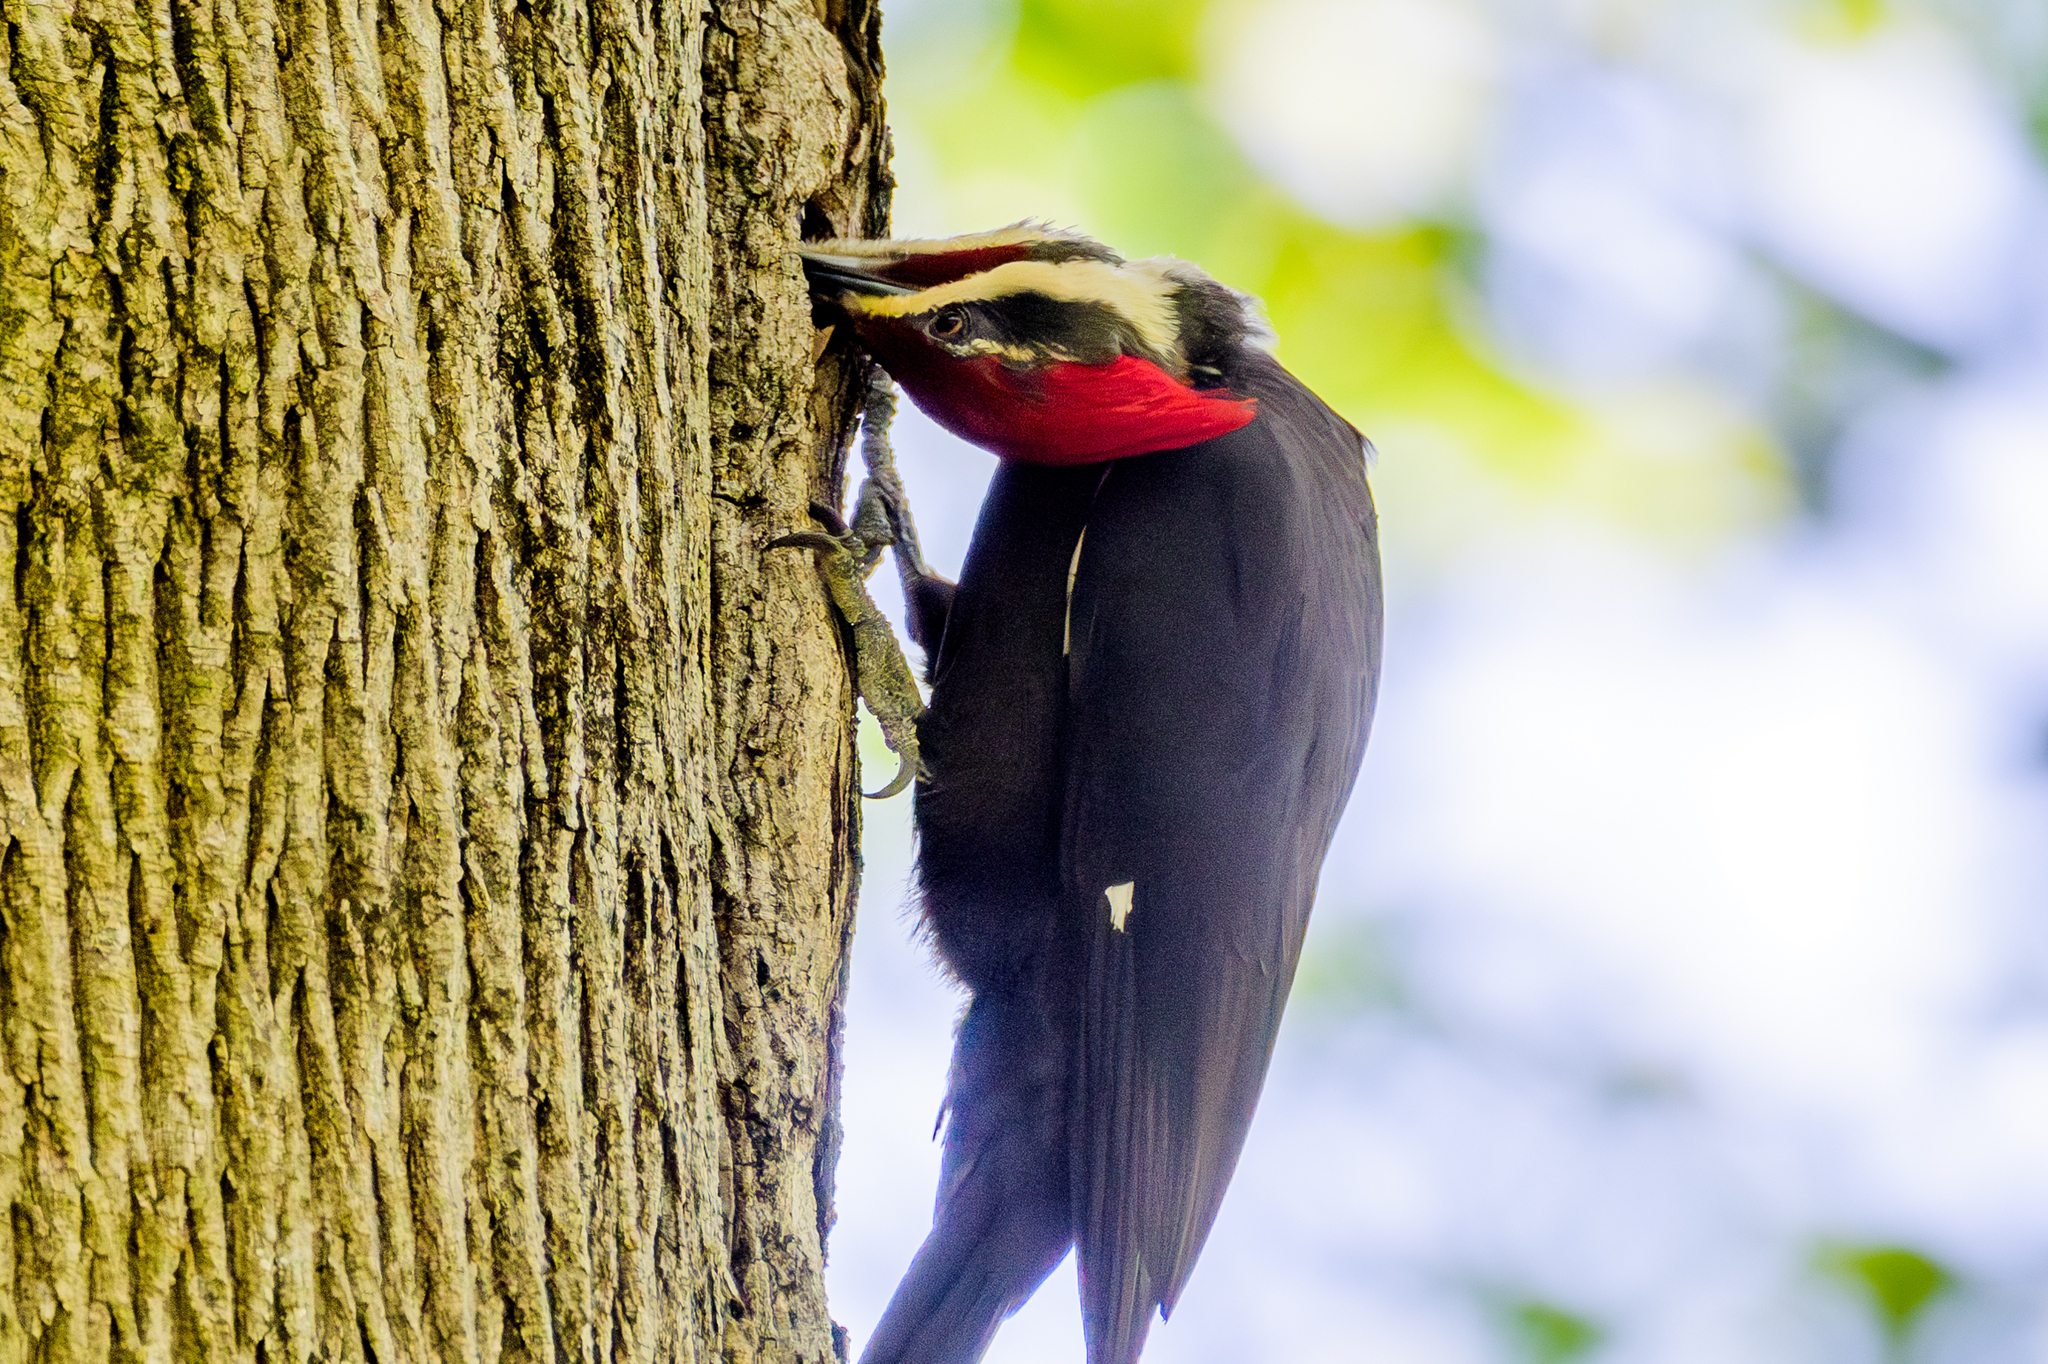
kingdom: Animalia
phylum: Chordata
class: Aves
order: Piciformes
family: Picidae
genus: Dryocopus
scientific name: Dryocopus pileatus
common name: Pileated woodpecker
